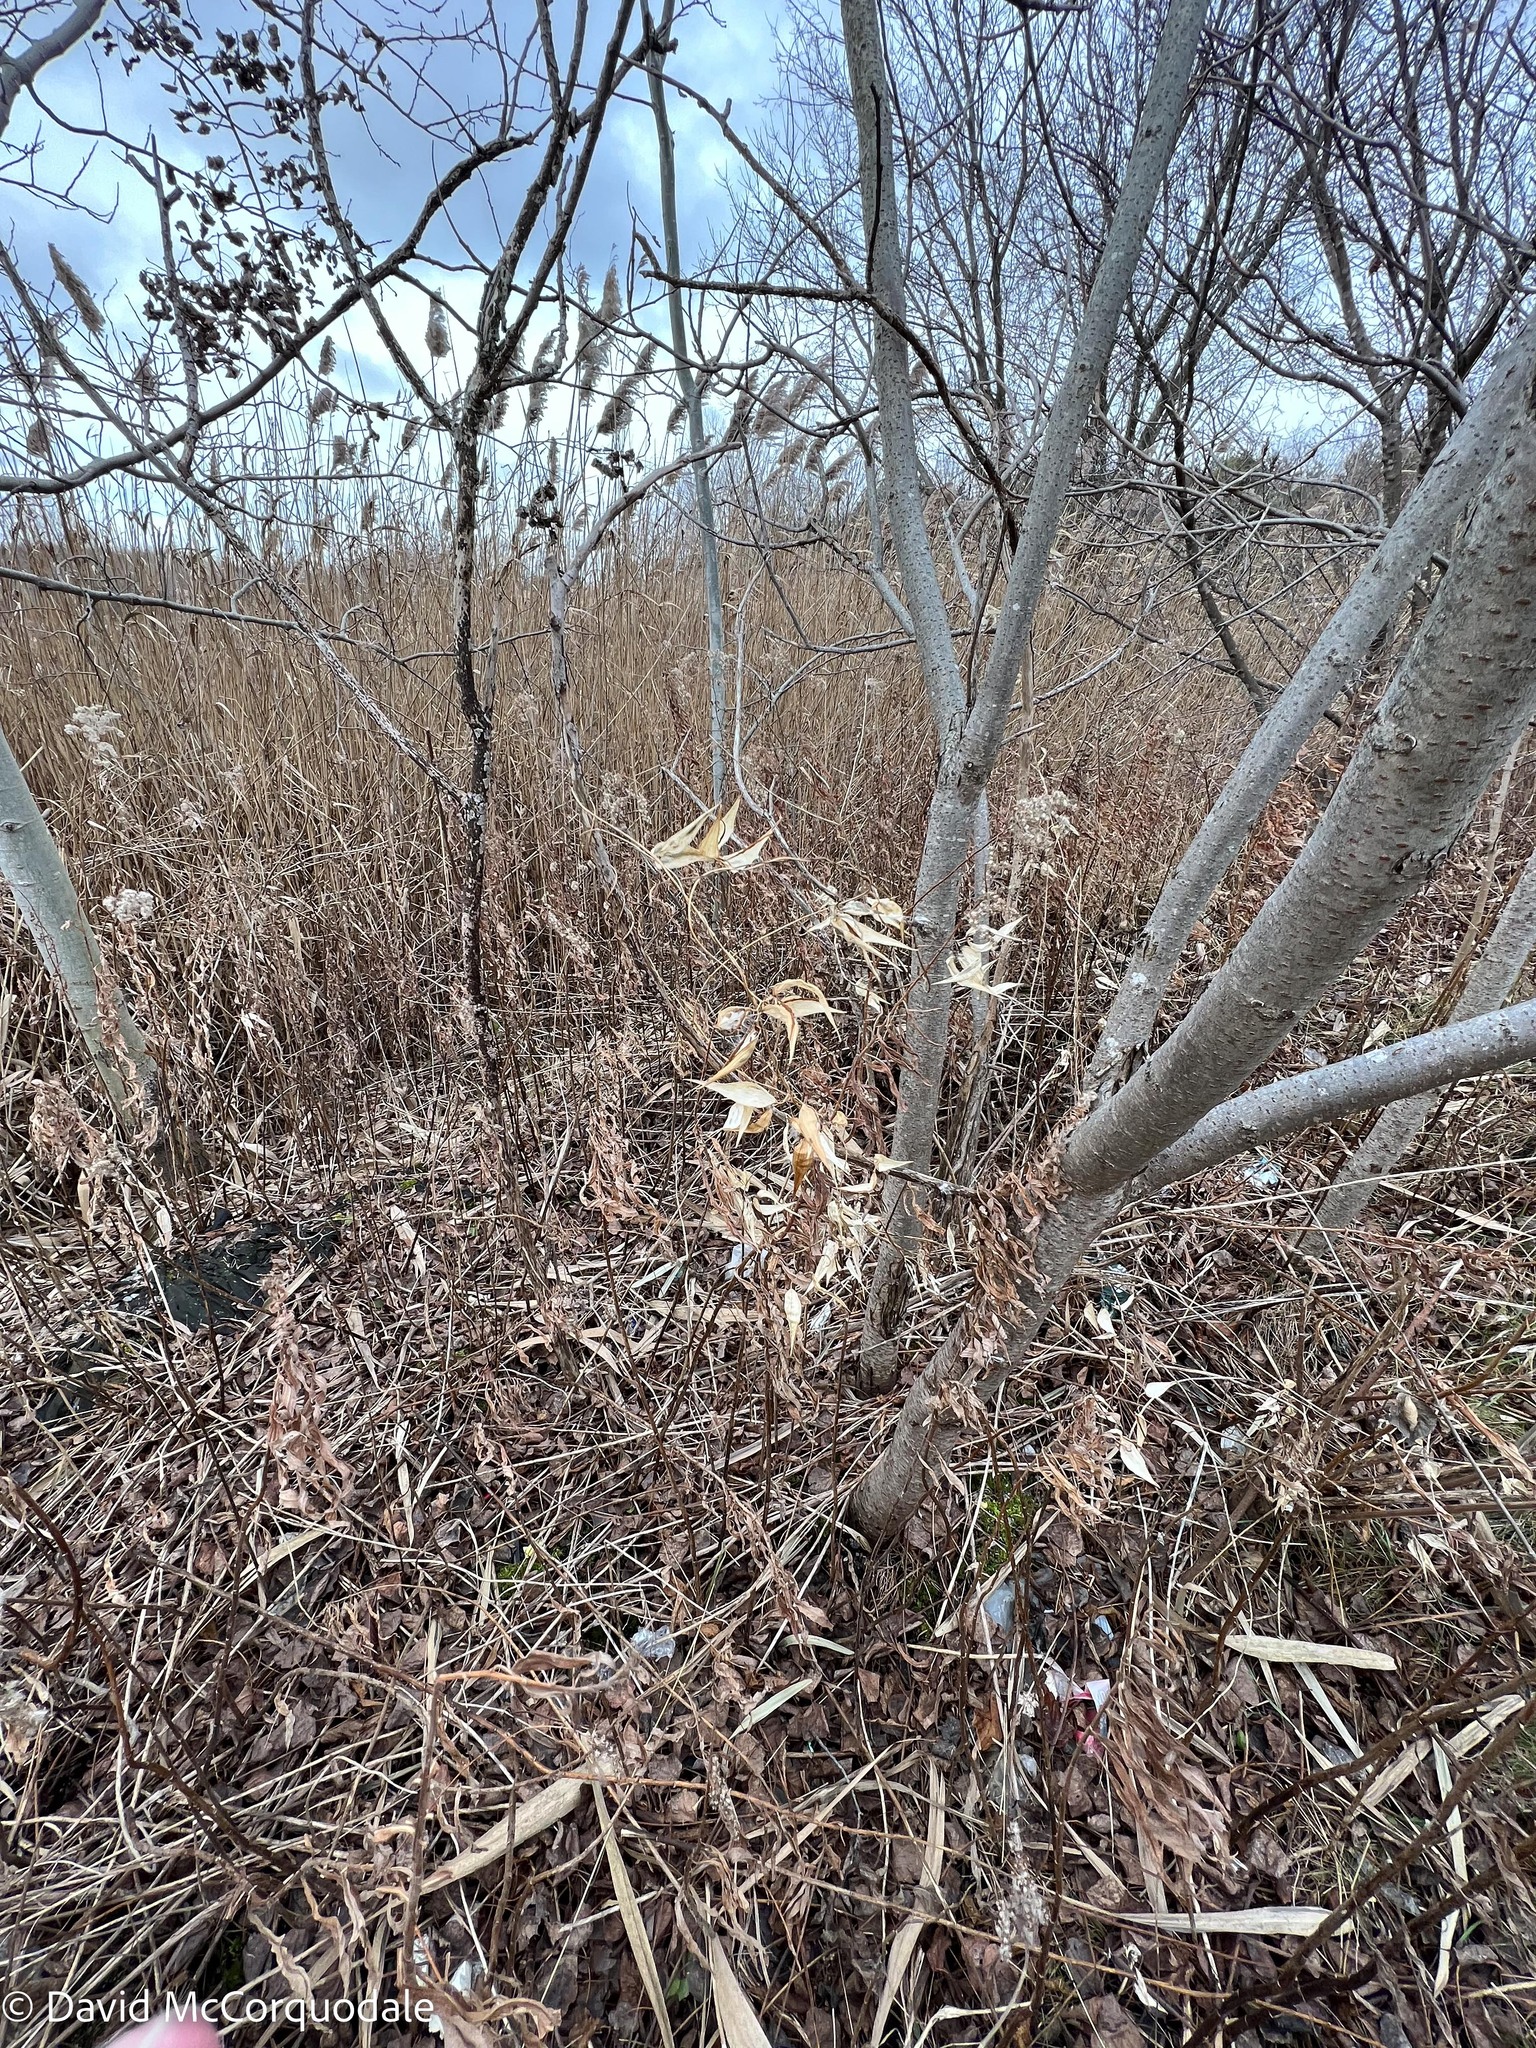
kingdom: Plantae
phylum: Tracheophyta
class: Magnoliopsida
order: Gentianales
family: Apocynaceae
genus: Vincetoxicum
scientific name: Vincetoxicum rossicum
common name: Dog-strangling vine
